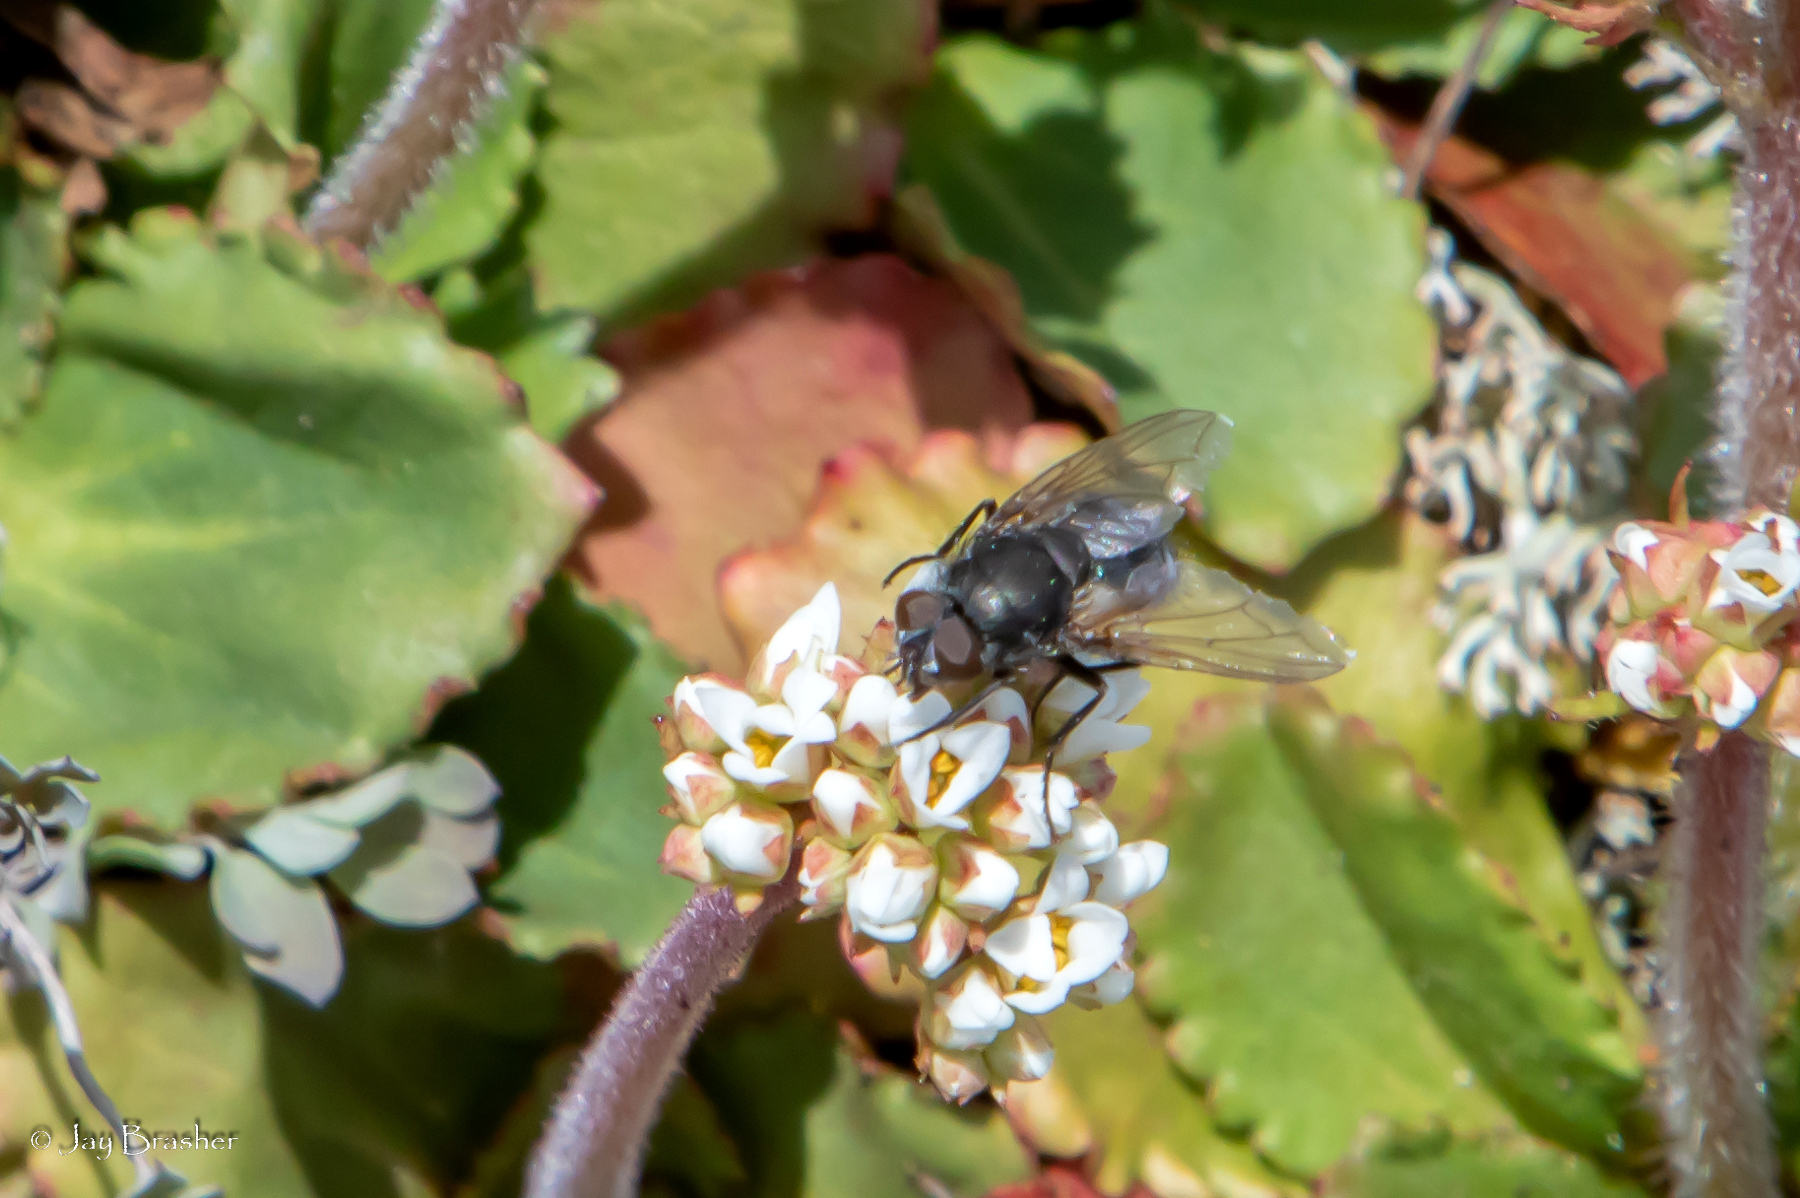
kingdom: Animalia
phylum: Arthropoda
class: Insecta
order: Diptera
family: Polleniidae
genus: Pollenia
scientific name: Pollenia
